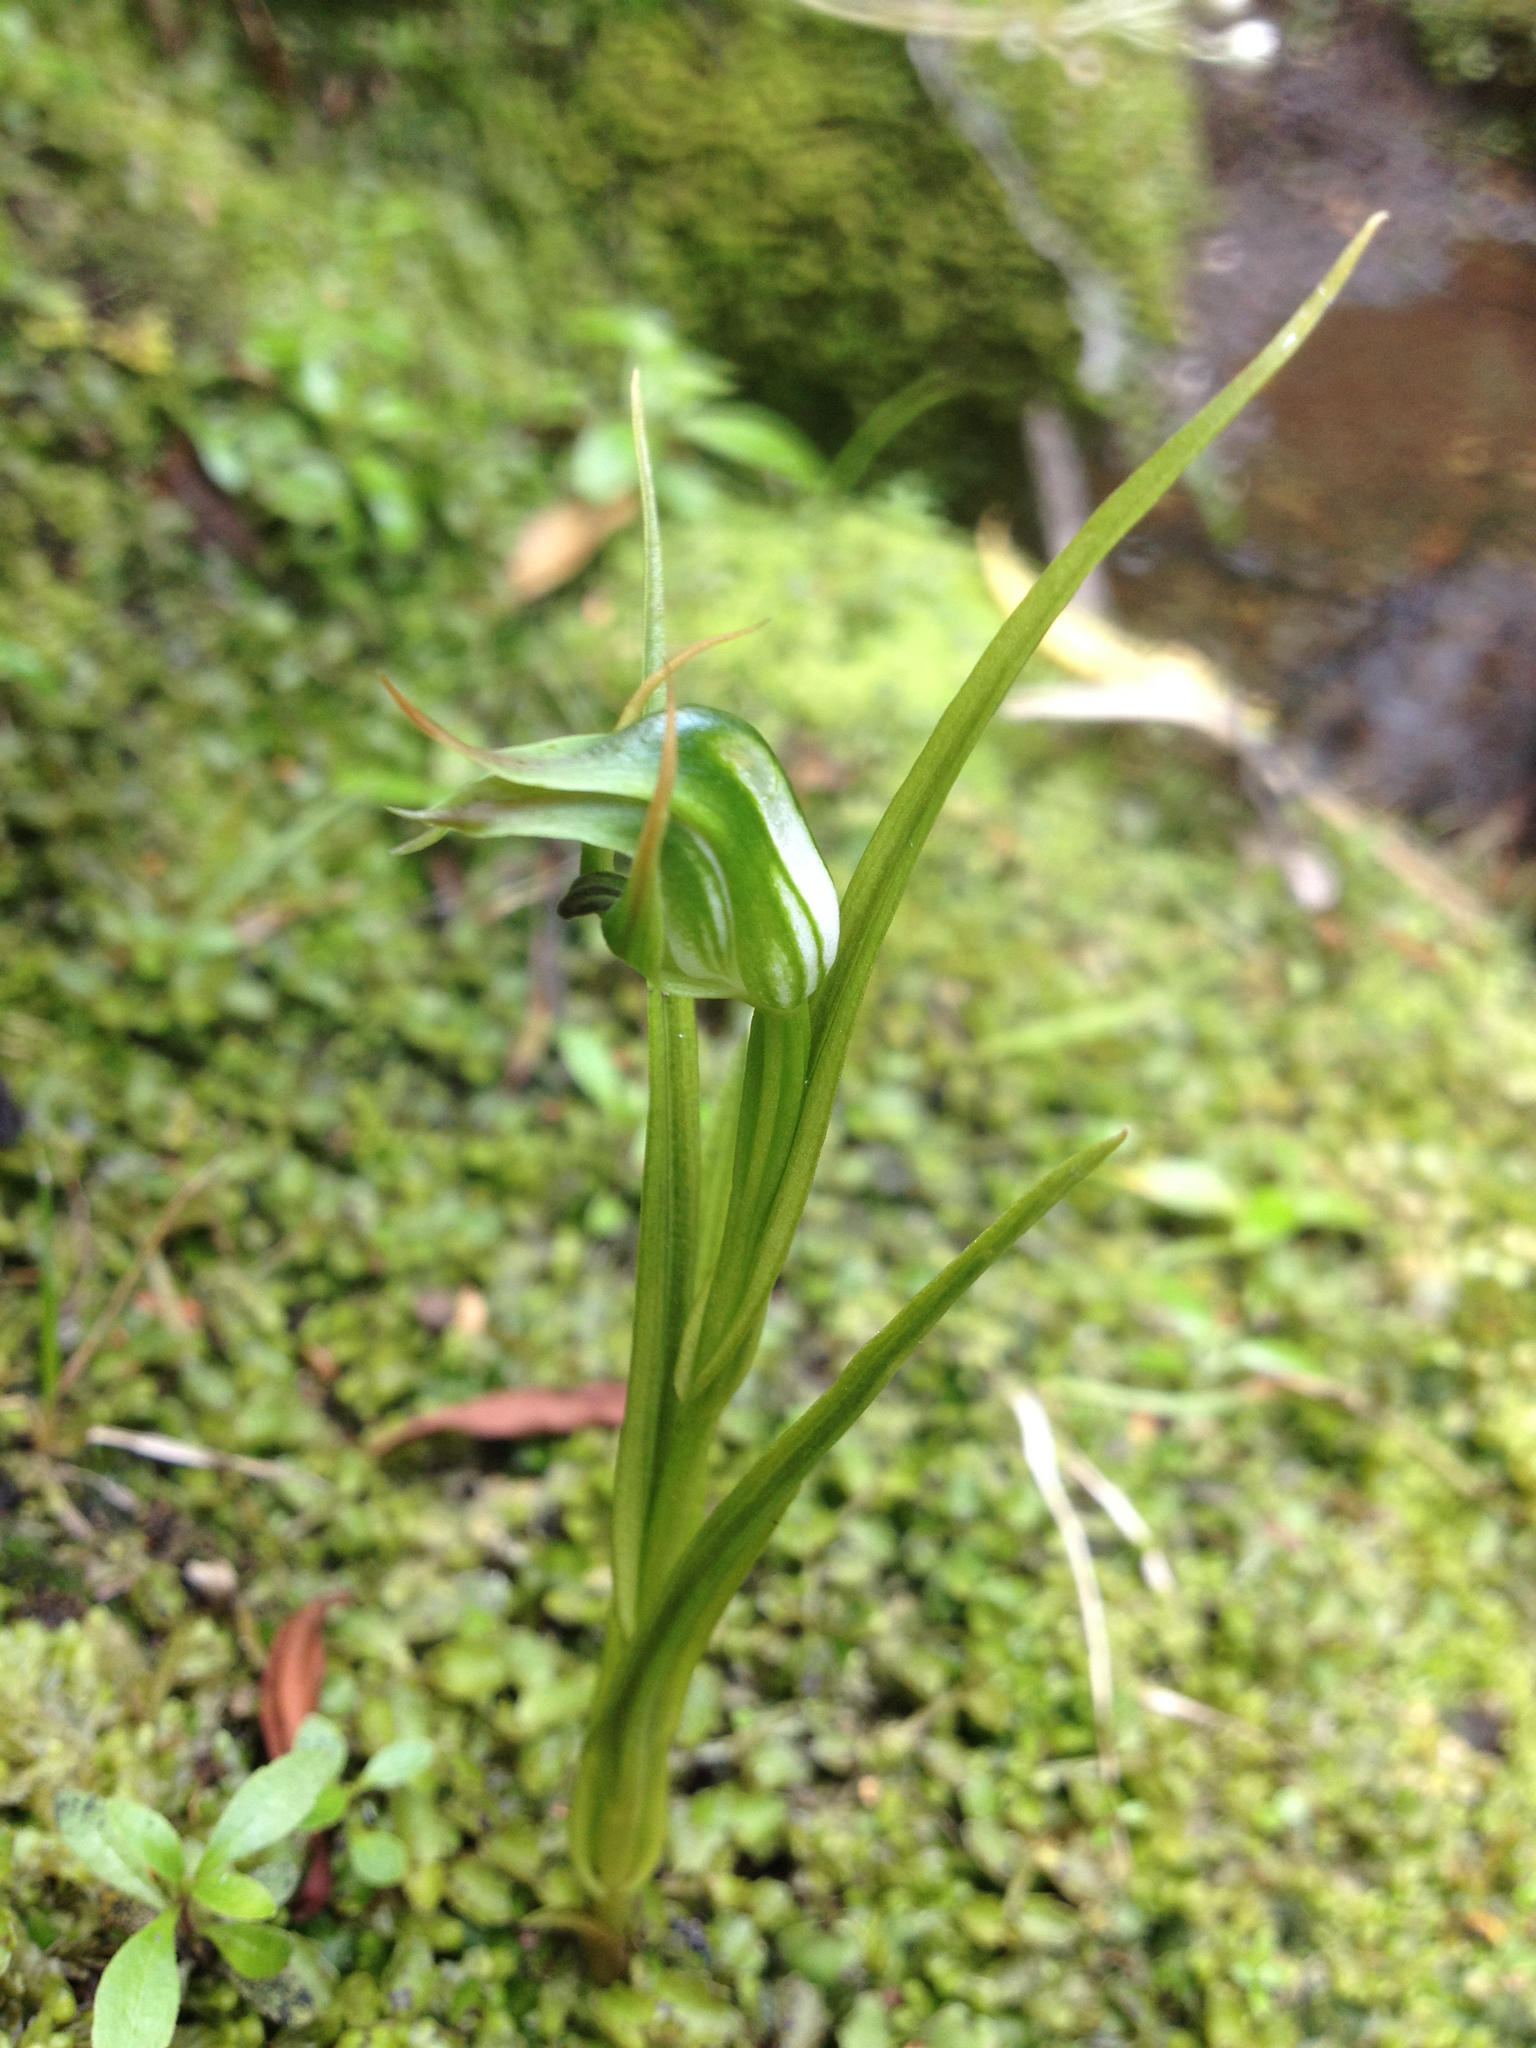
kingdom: Plantae
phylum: Tracheophyta
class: Liliopsida
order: Asparagales
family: Orchidaceae
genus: Pterostylis
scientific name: Pterostylis graminea
